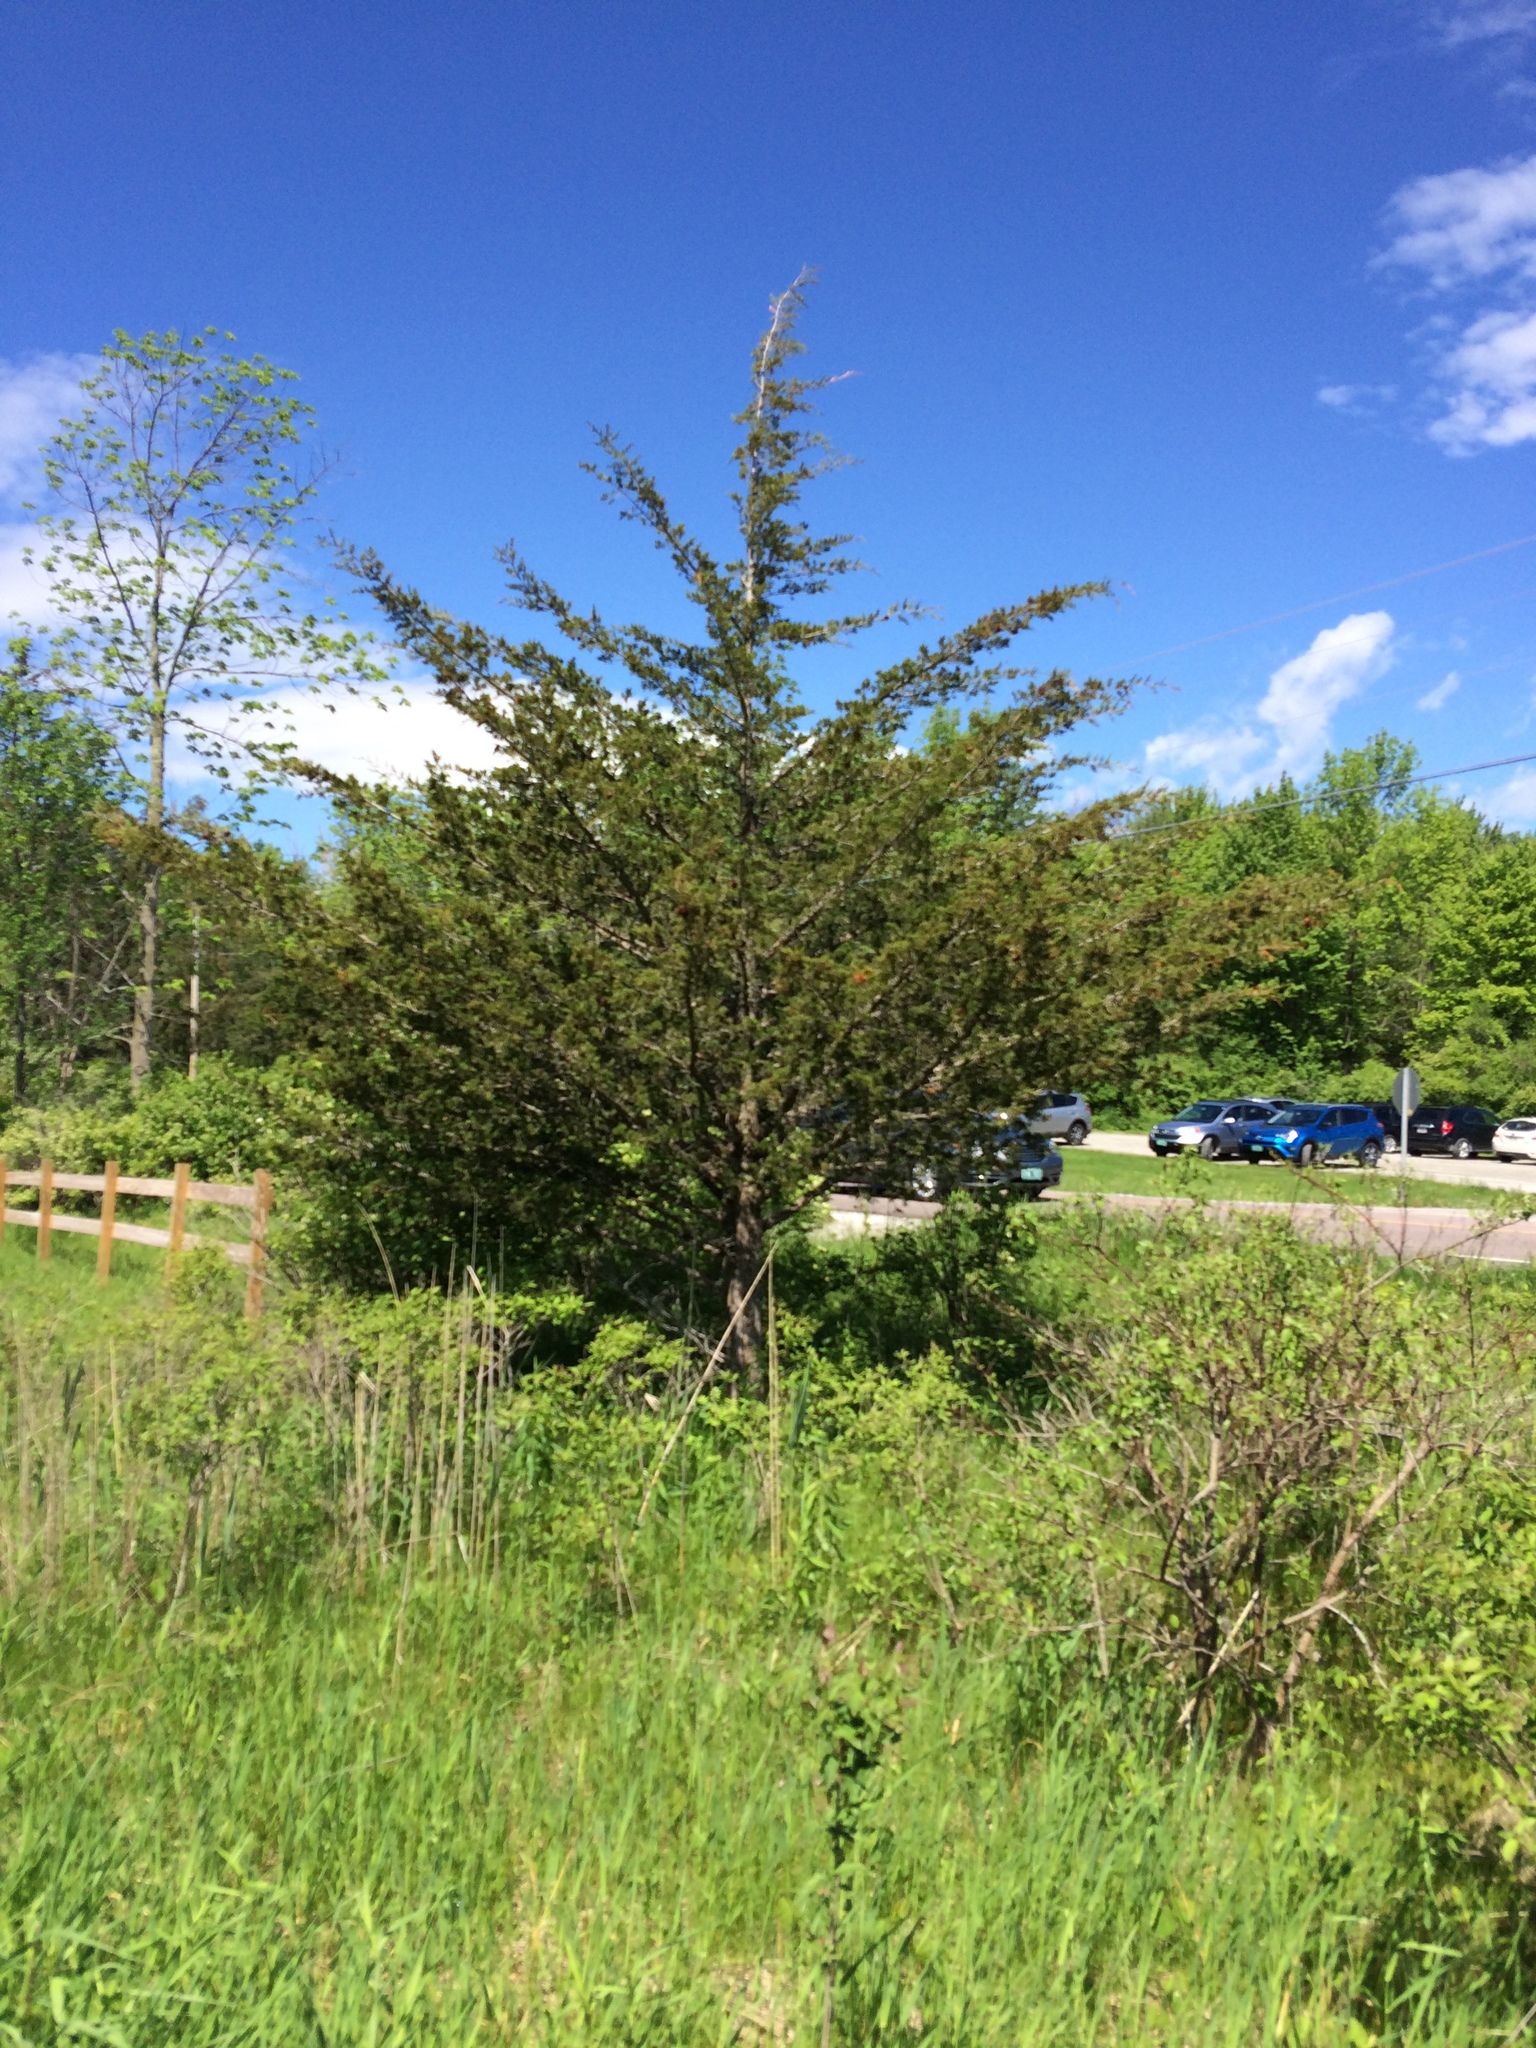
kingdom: Plantae
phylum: Tracheophyta
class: Pinopsida
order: Pinales
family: Cupressaceae
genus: Juniperus
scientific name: Juniperus virginiana
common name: Red juniper
